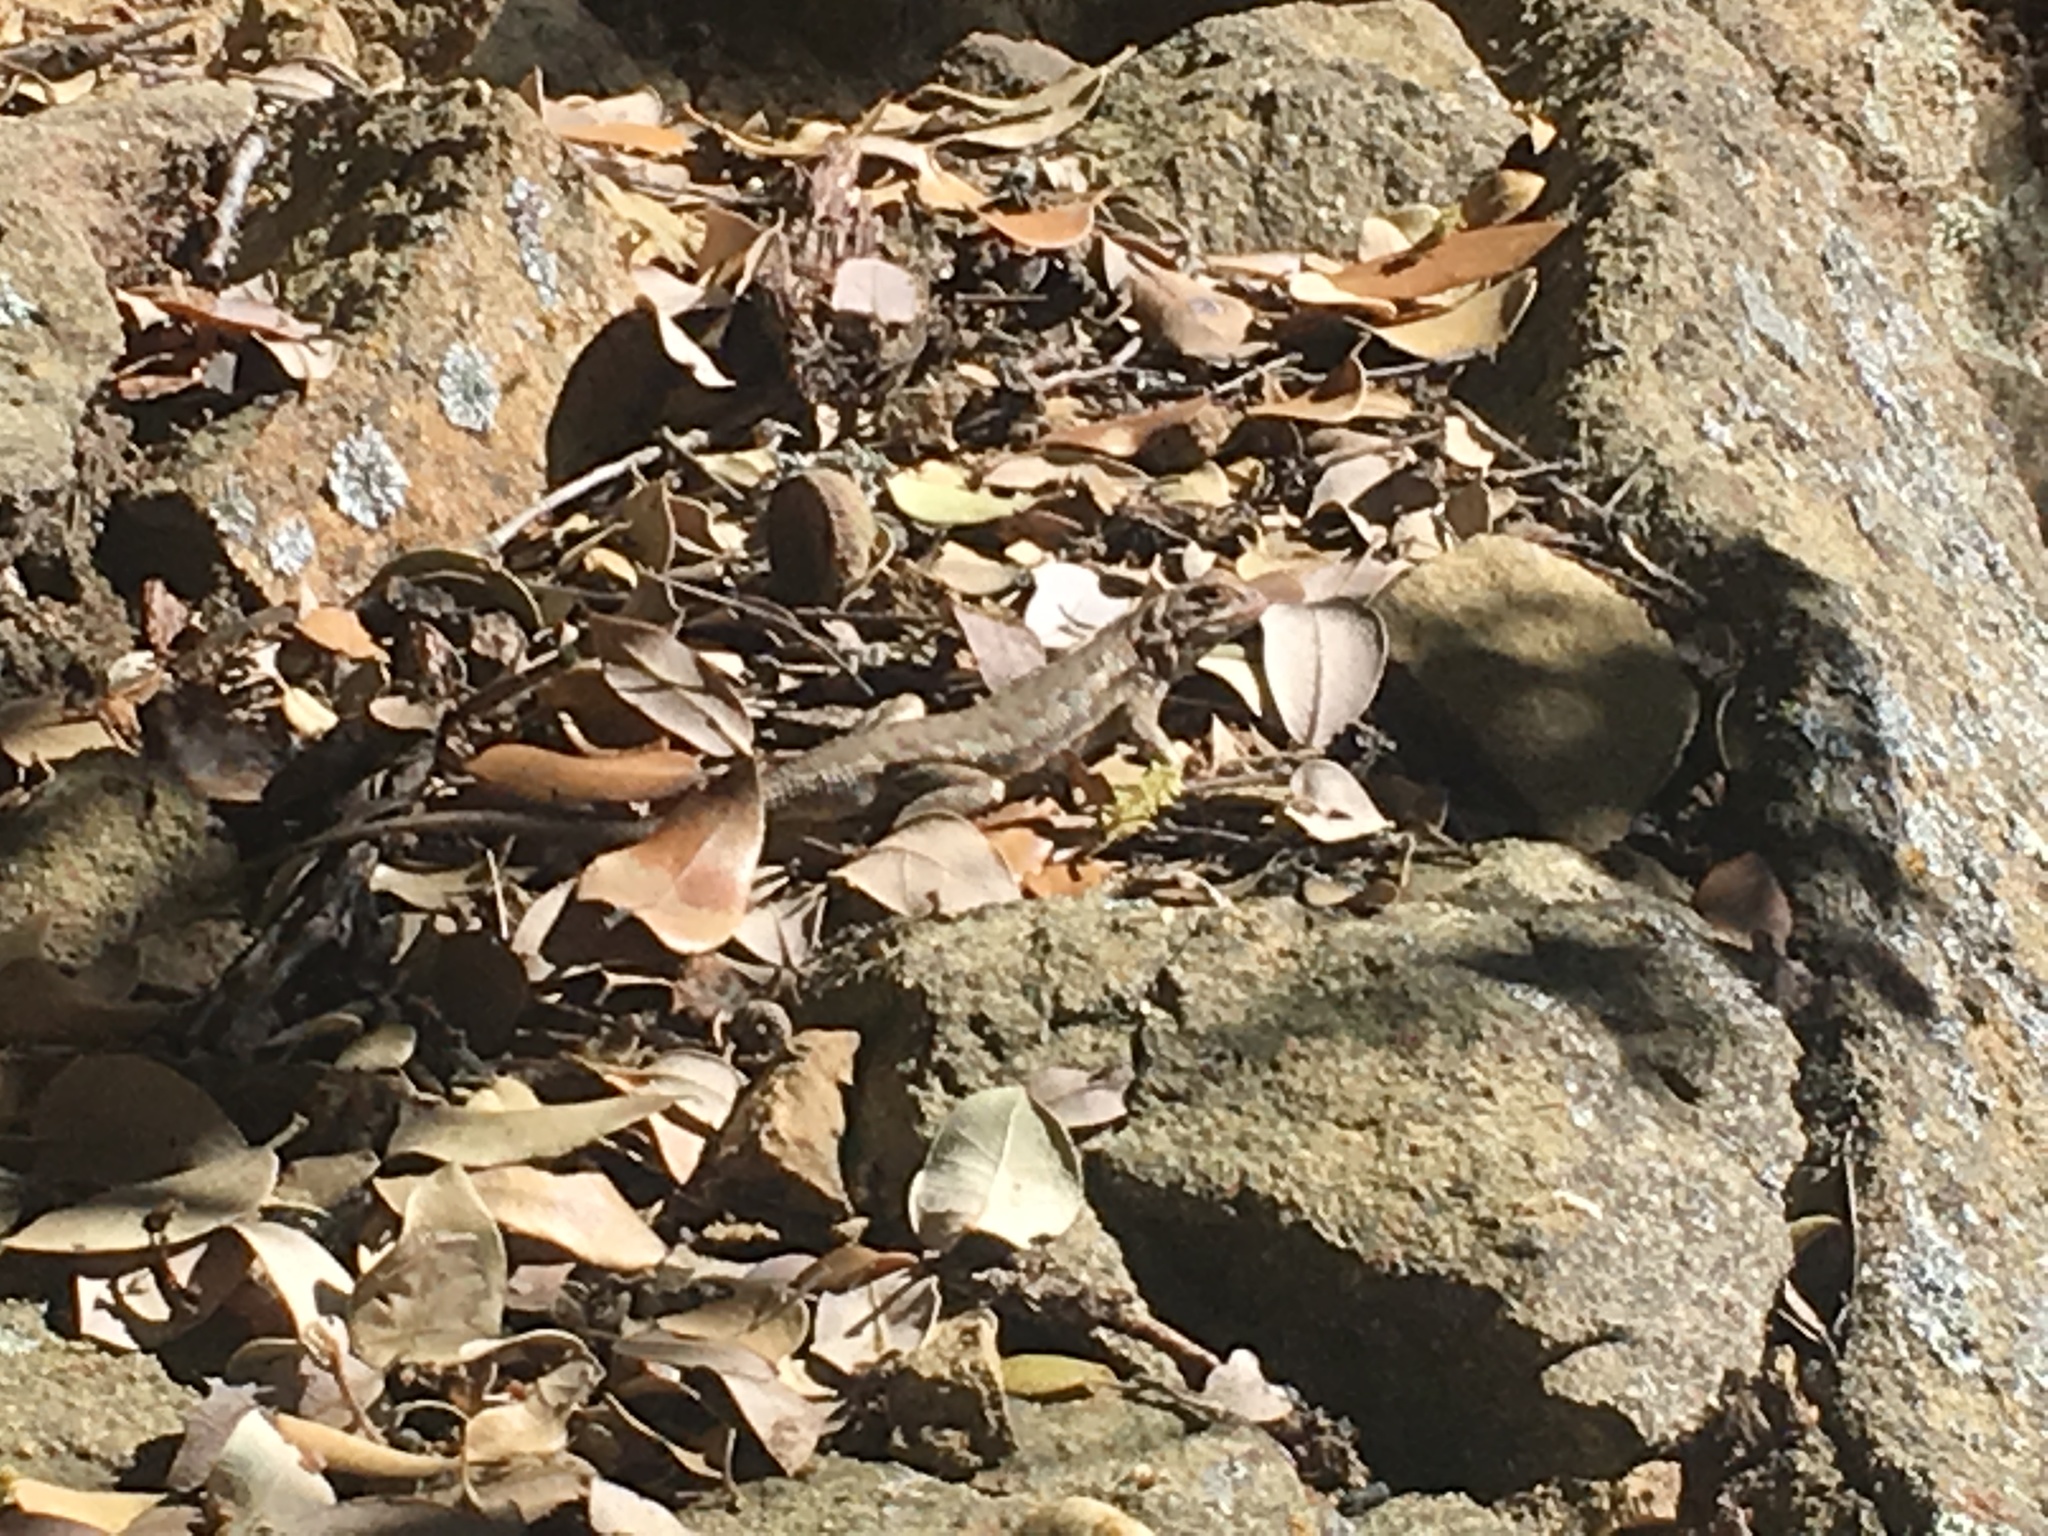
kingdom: Animalia
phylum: Chordata
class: Squamata
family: Phrynosomatidae
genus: Sceloporus
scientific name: Sceloporus graciosus
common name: Sagebrush lizard
